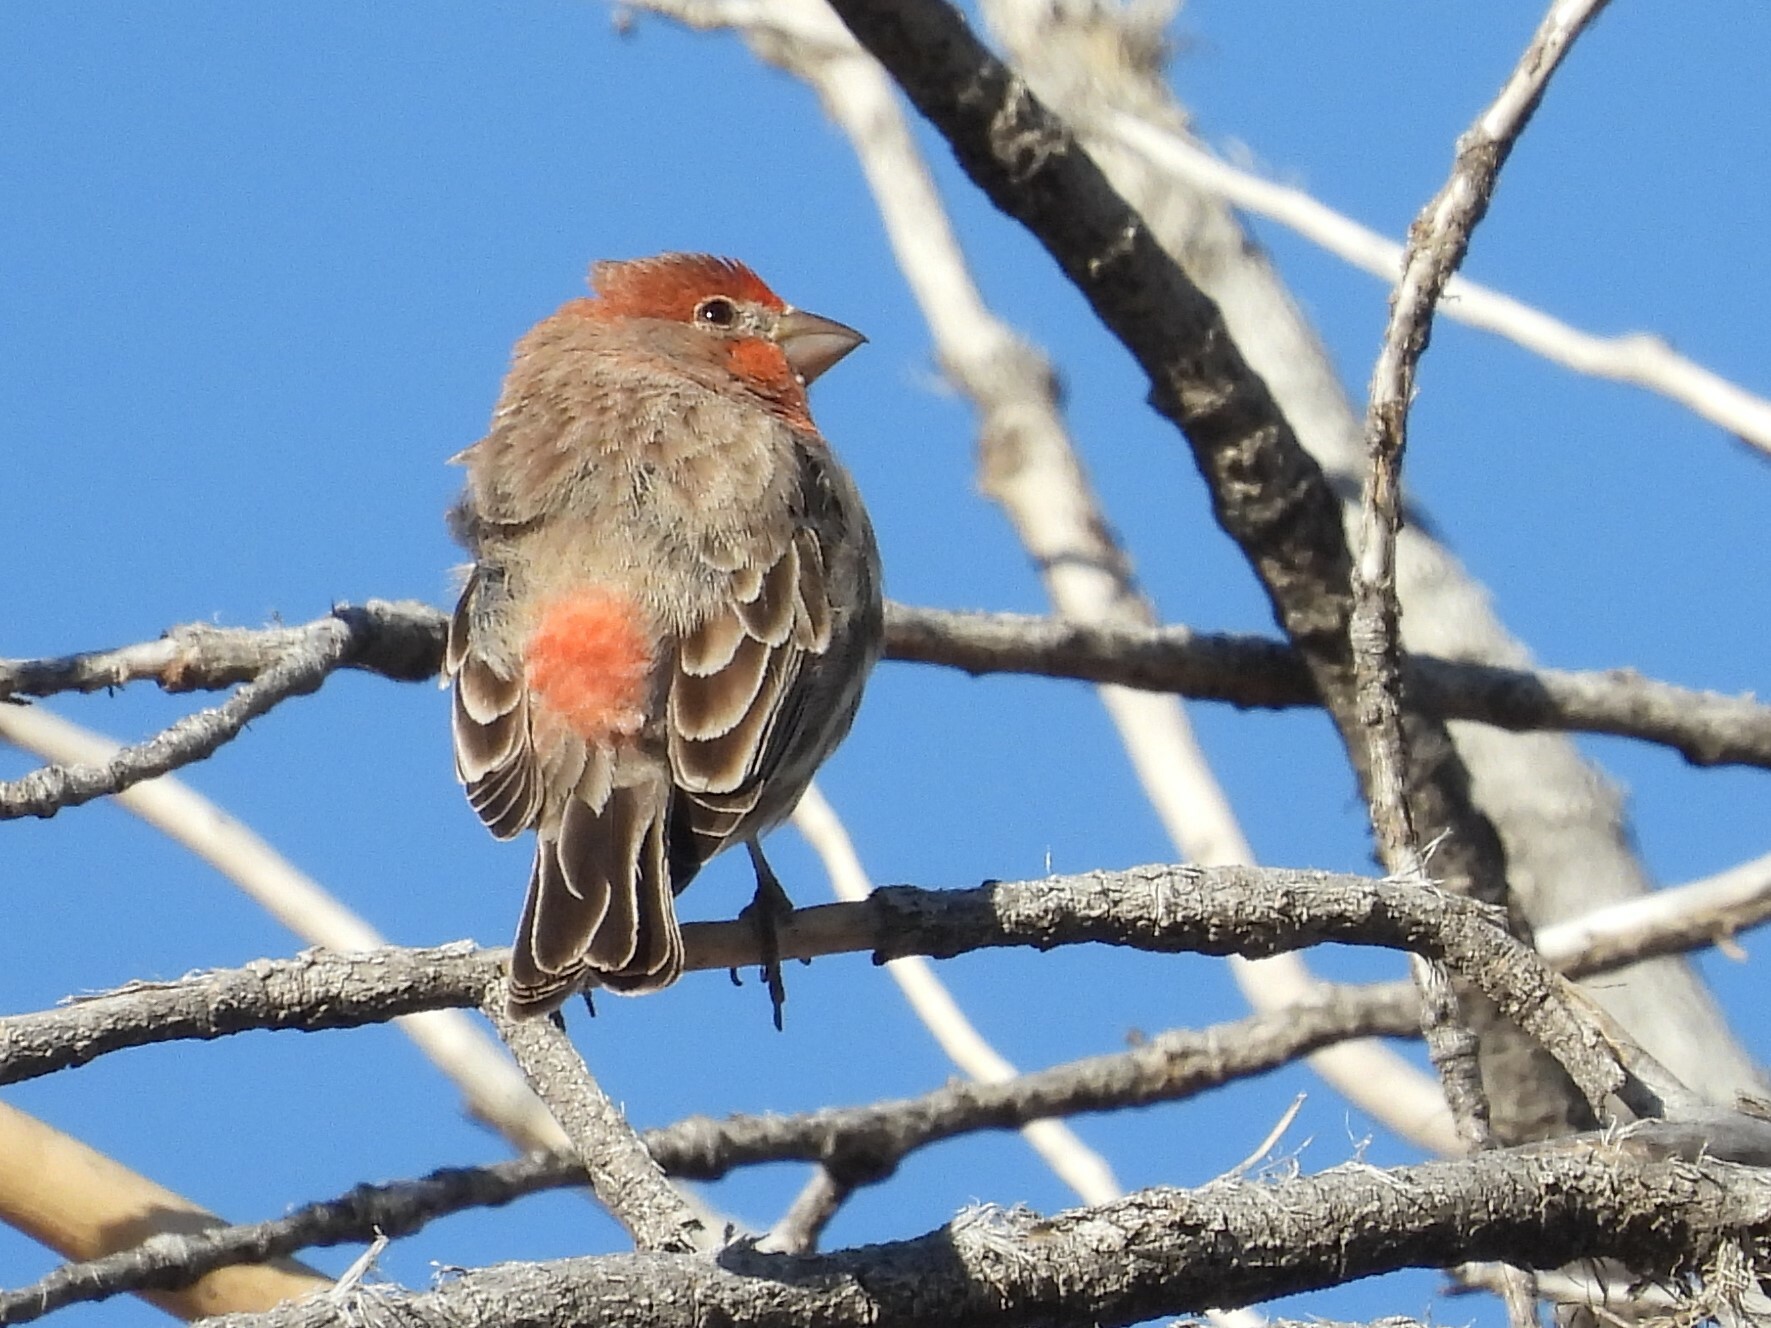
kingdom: Animalia
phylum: Chordata
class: Aves
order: Passeriformes
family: Fringillidae
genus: Haemorhous
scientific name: Haemorhous mexicanus
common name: House finch
